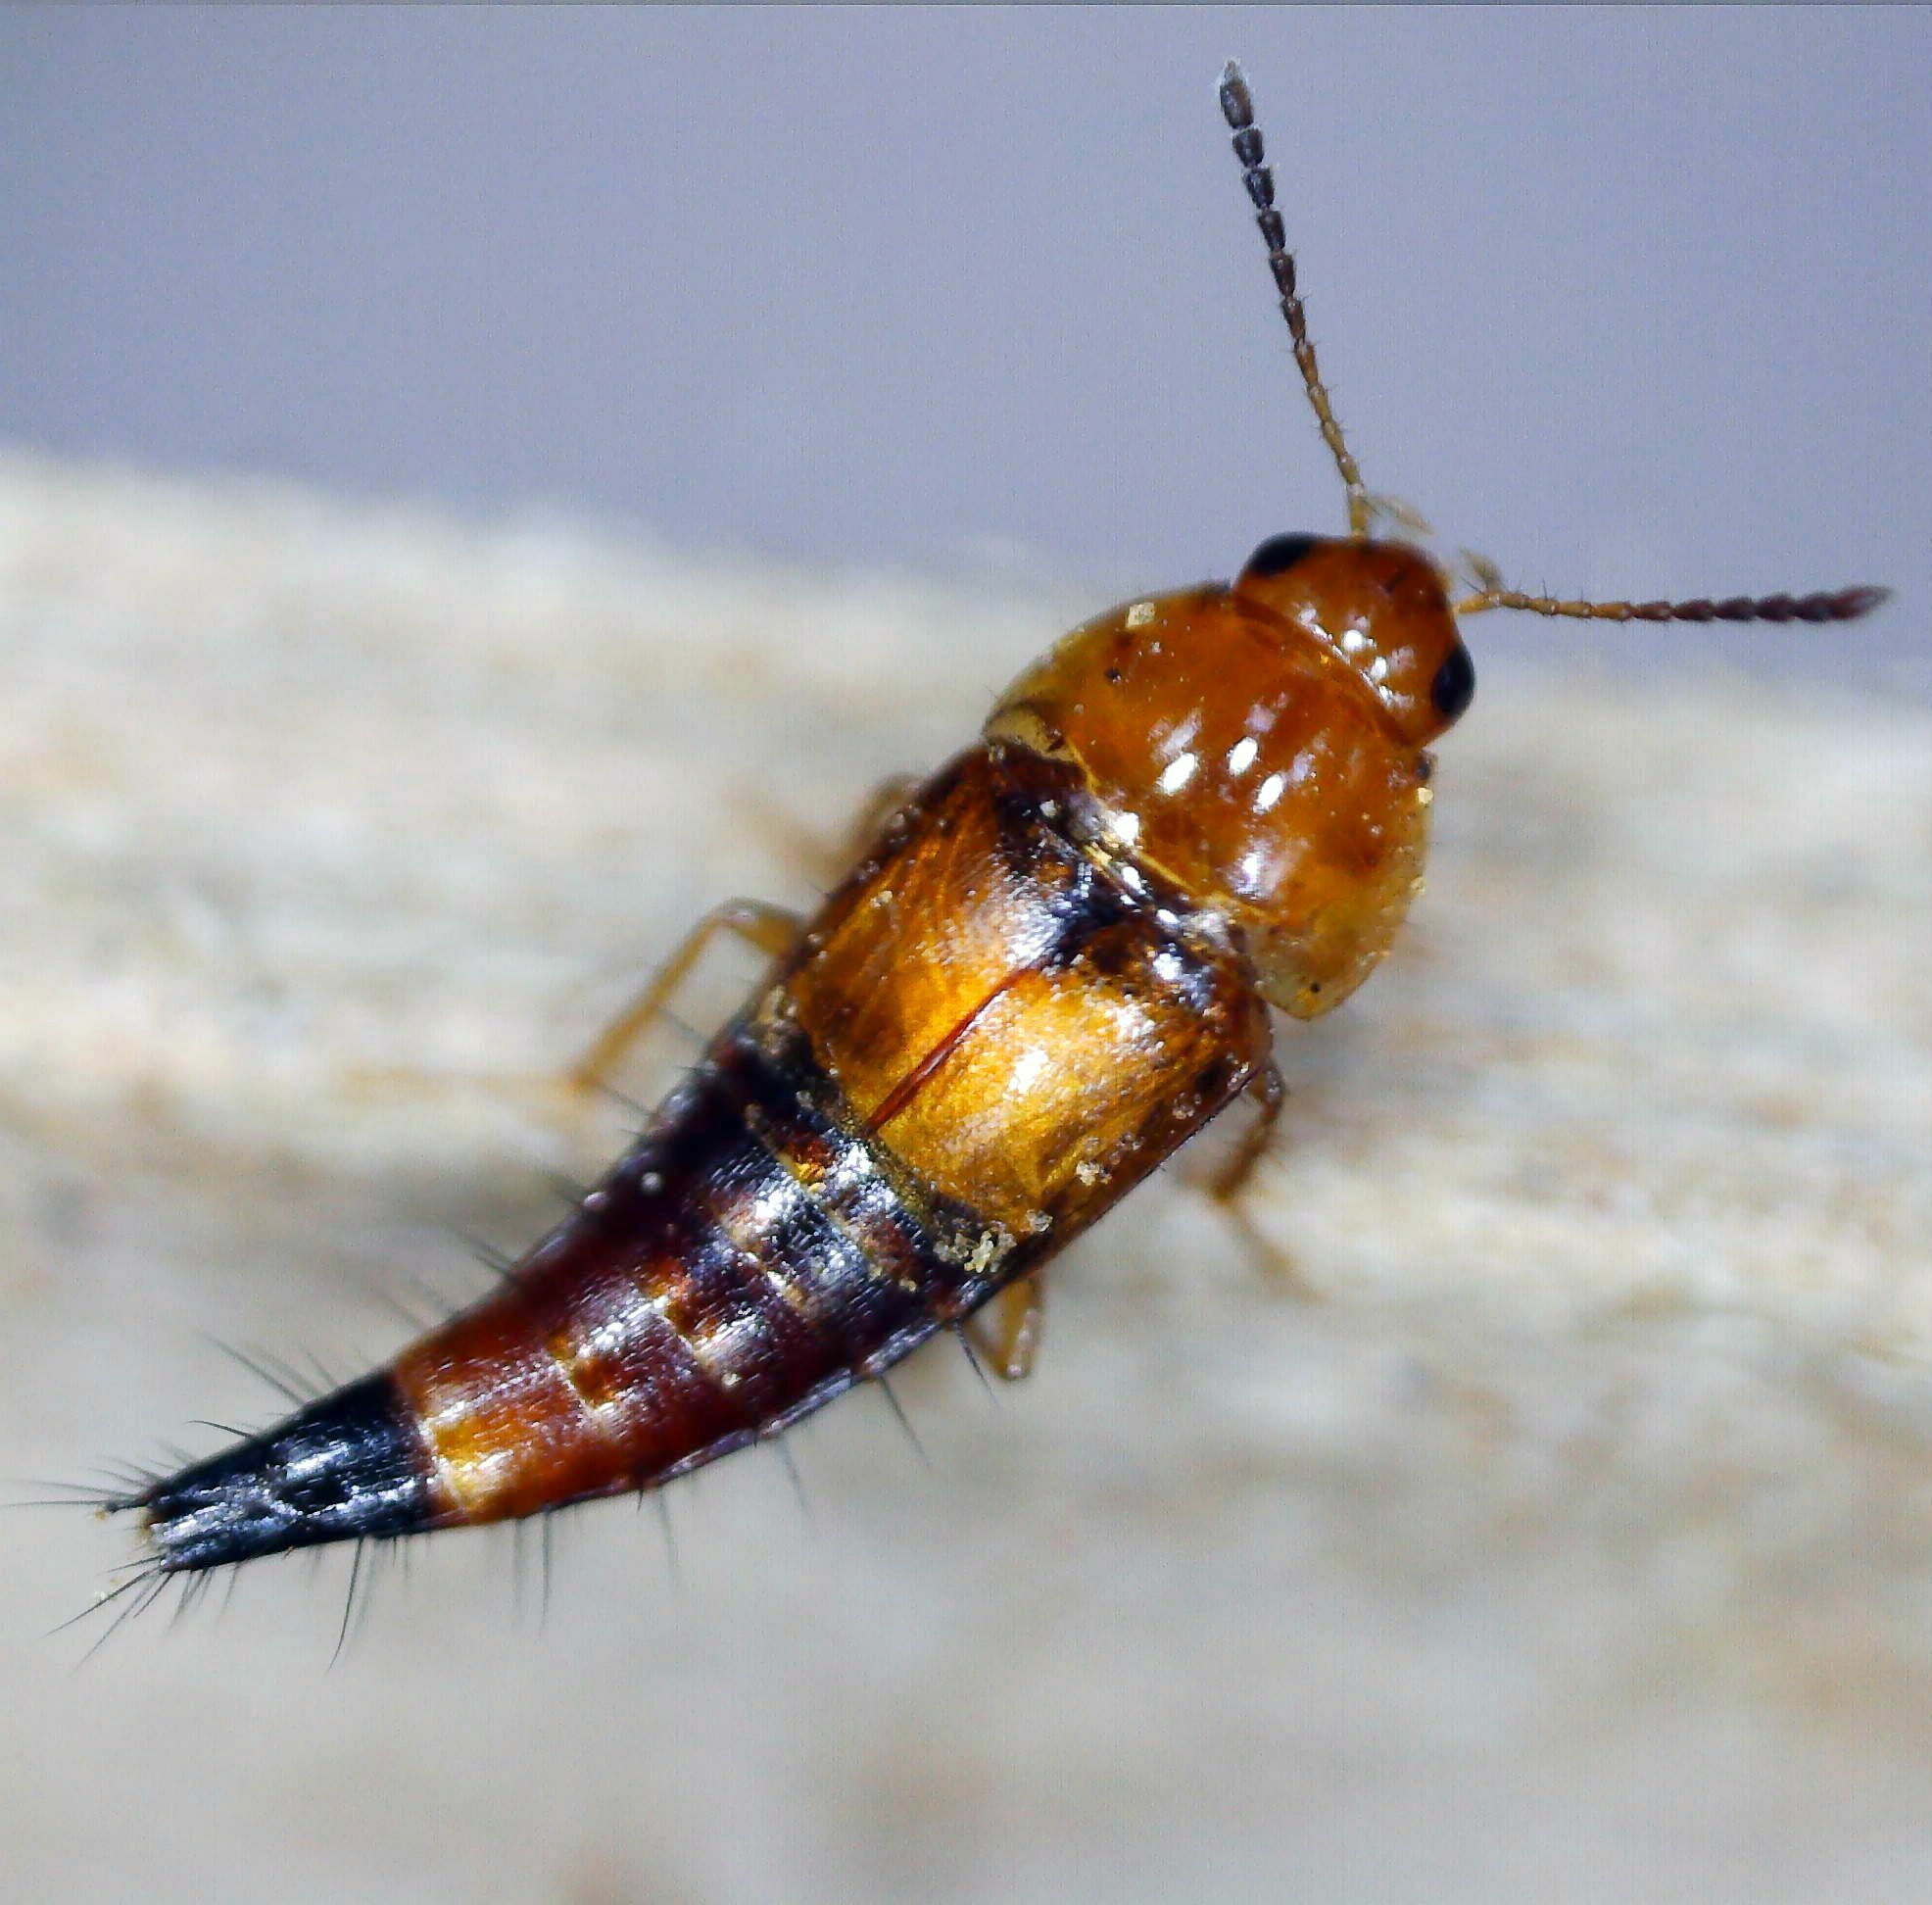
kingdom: Animalia
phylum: Arthropoda
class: Insecta
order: Coleoptera
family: Staphylinidae
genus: Tachyporus
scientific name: Tachyporus formosus
